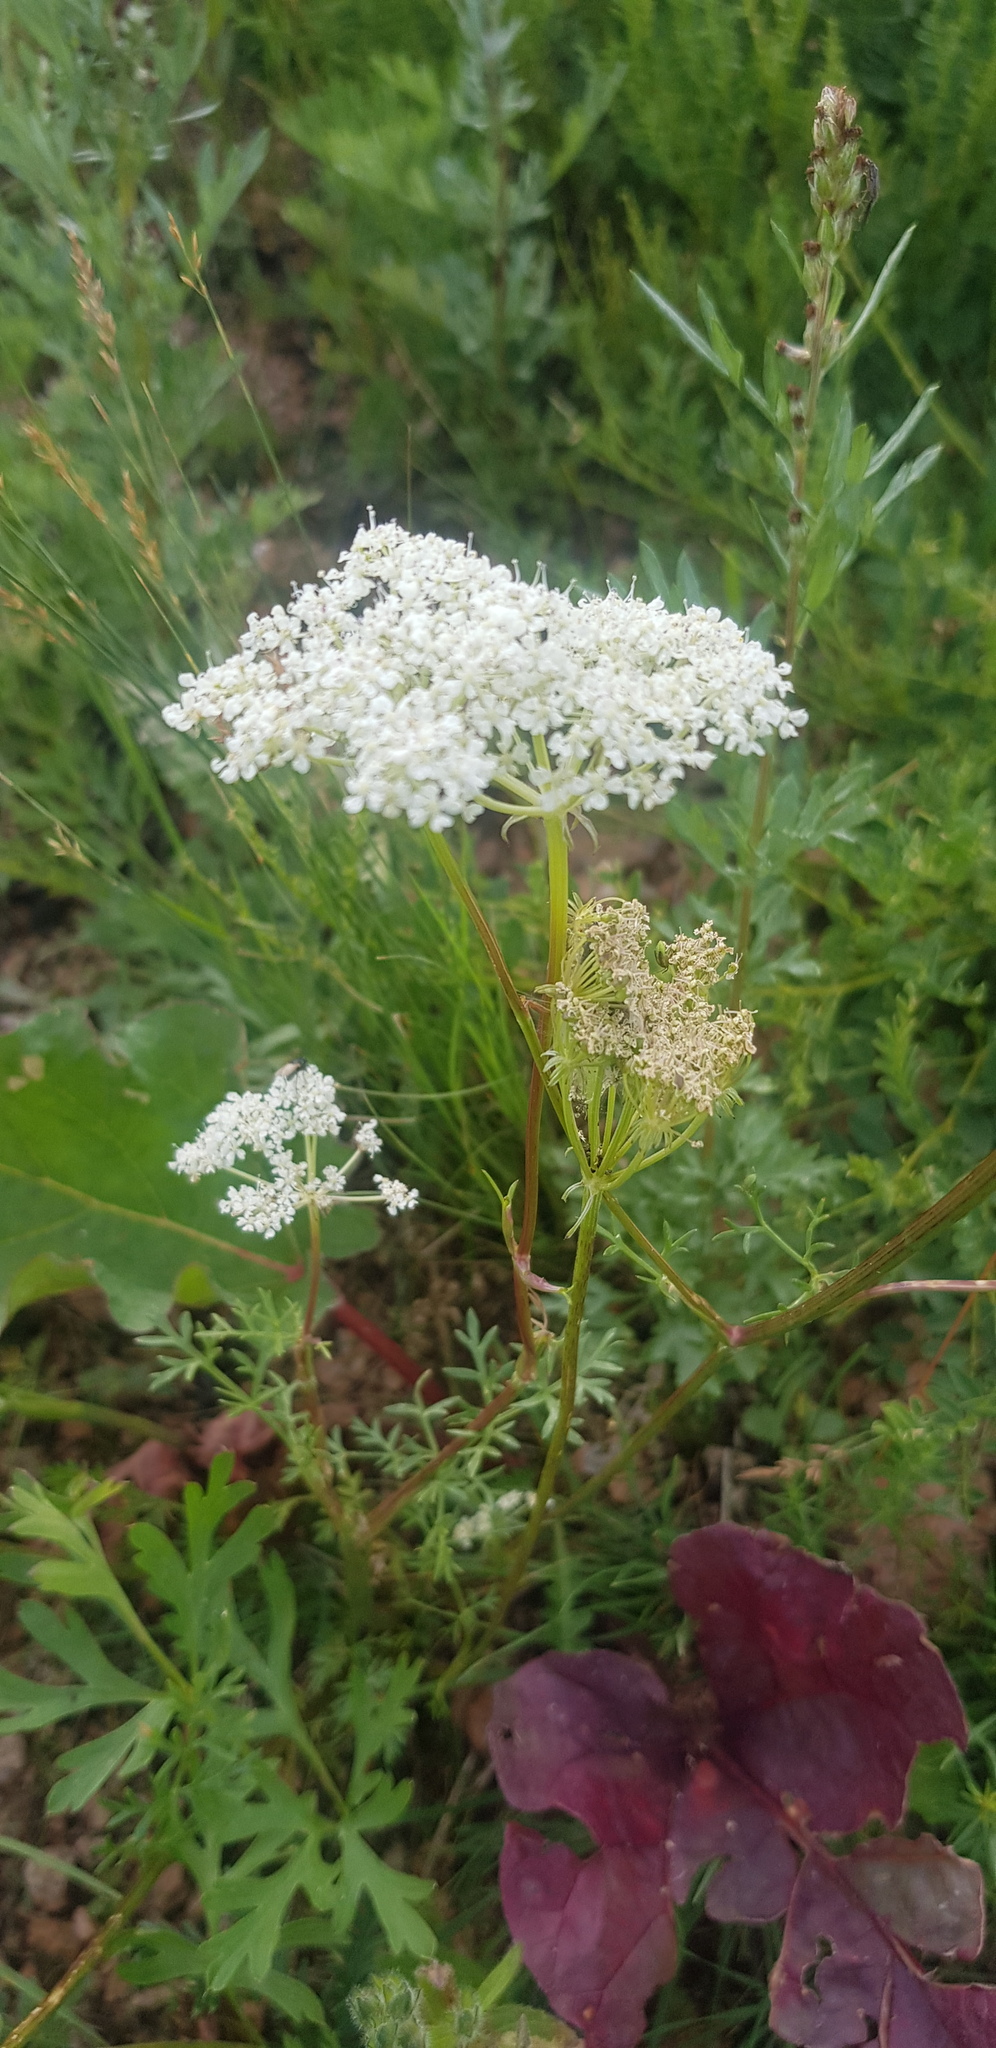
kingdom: Plantae
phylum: Tracheophyta
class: Magnoliopsida
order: Apiales
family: Apiaceae
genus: Kitagawia
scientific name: Kitagawia baicalensis
